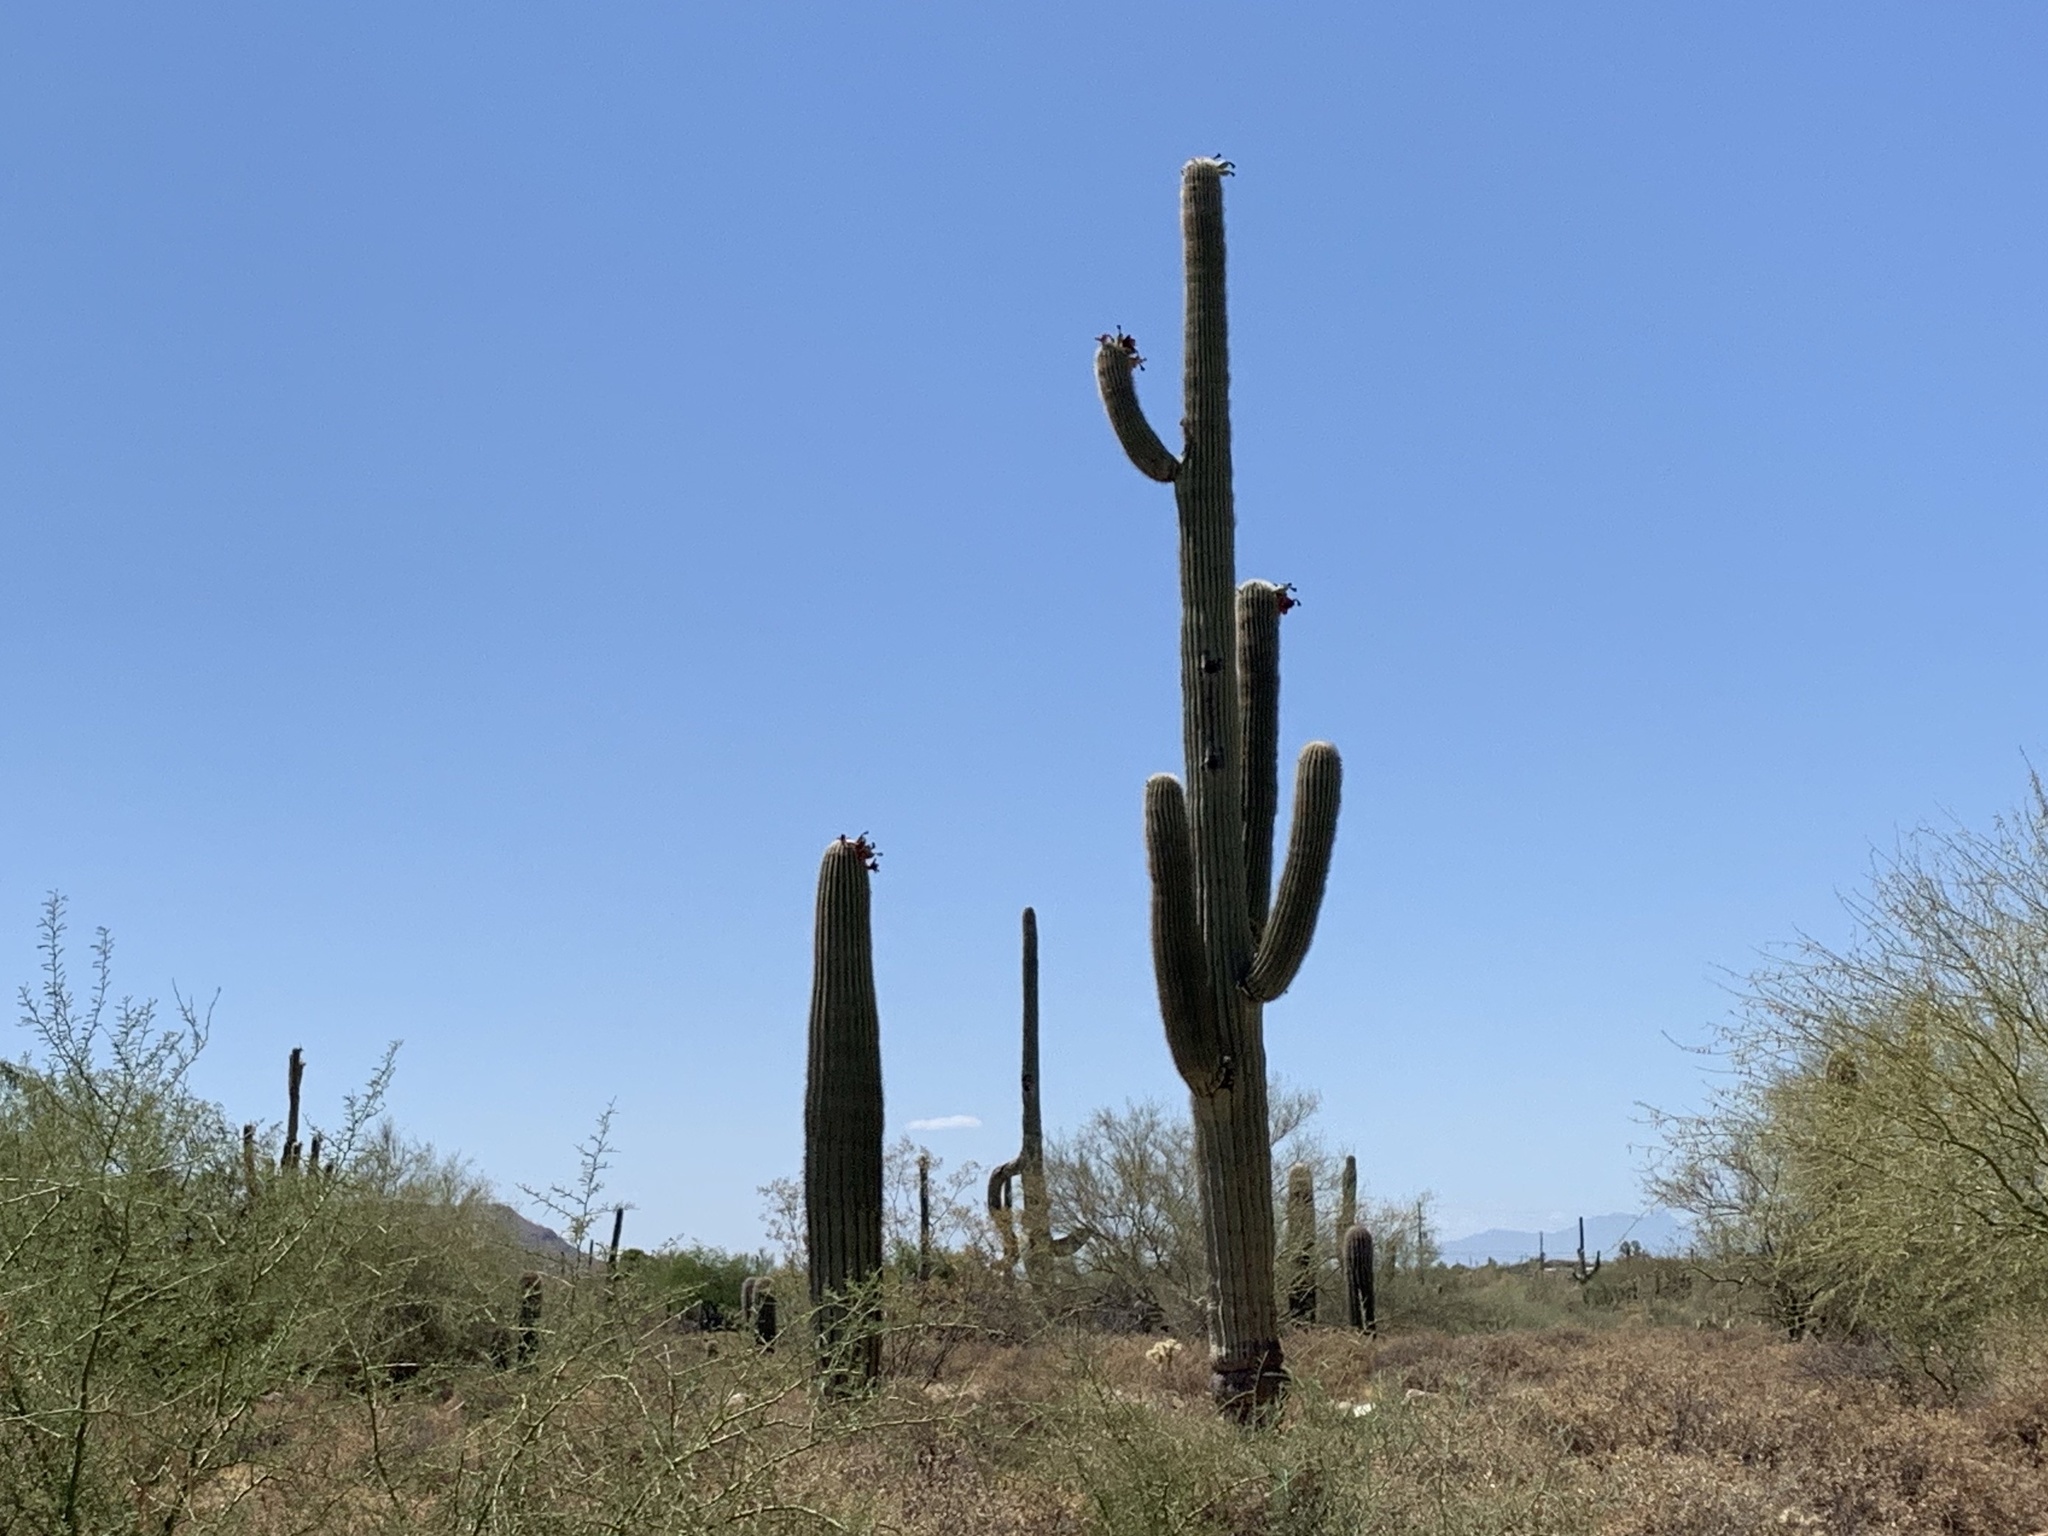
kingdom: Plantae
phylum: Tracheophyta
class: Magnoliopsida
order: Caryophyllales
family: Cactaceae
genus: Carnegiea
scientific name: Carnegiea gigantea
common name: Saguaro
